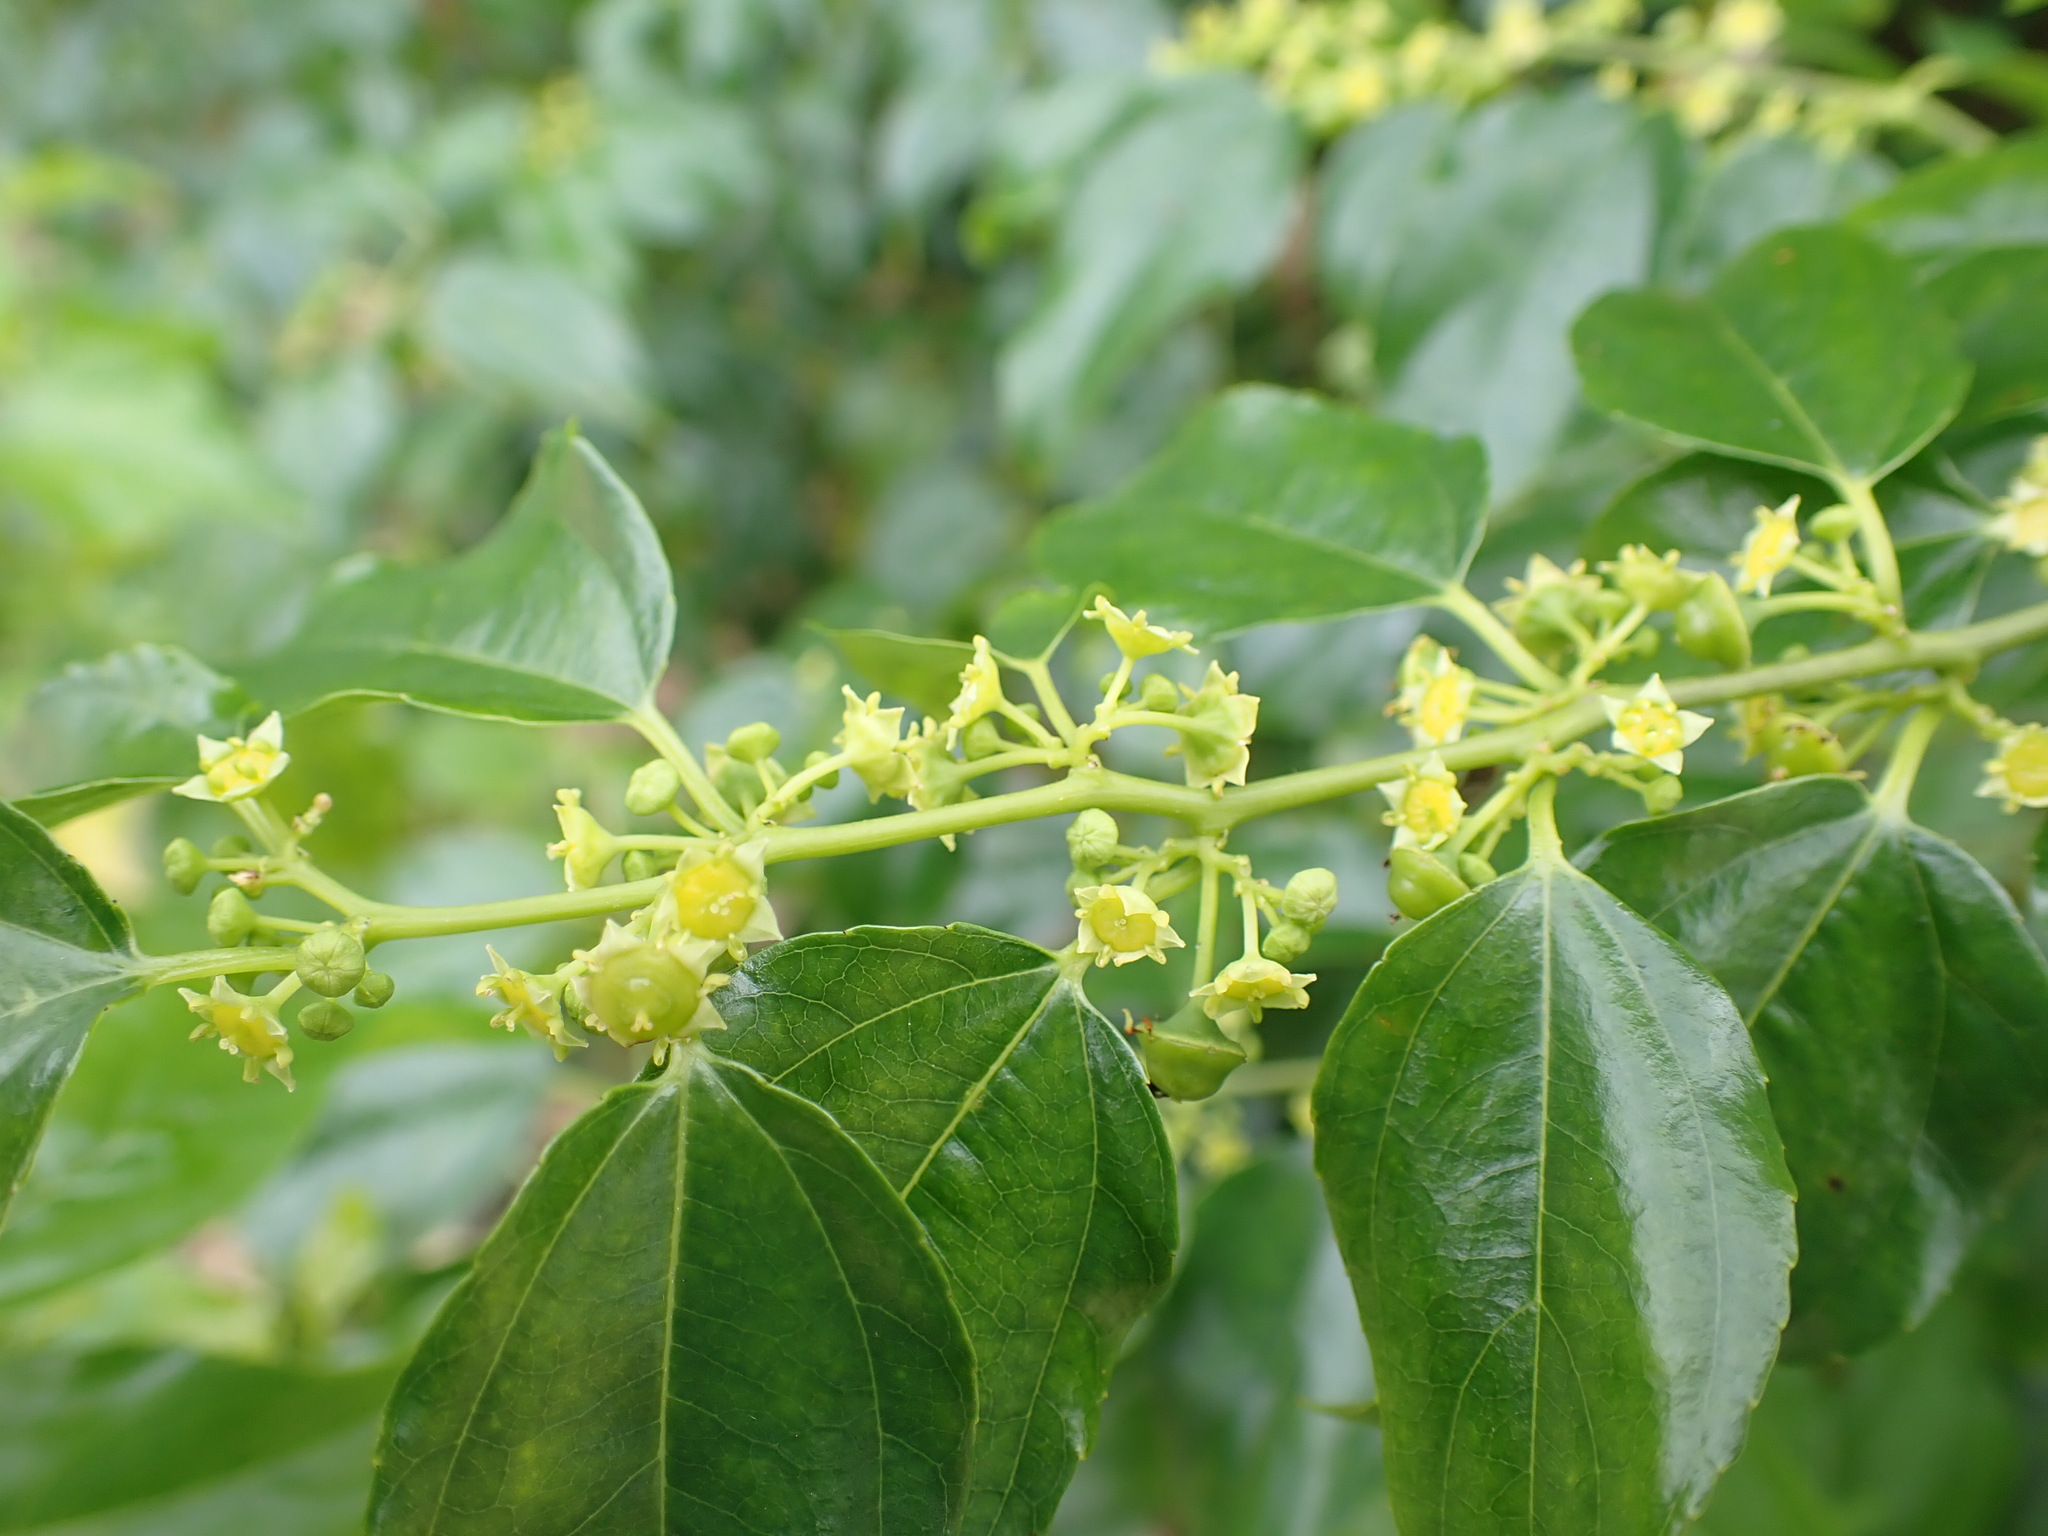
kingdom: Plantae
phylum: Tracheophyta
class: Magnoliopsida
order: Rosales
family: Rhamnaceae
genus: Colubrina
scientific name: Colubrina asiatica
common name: Asian nakedwood
